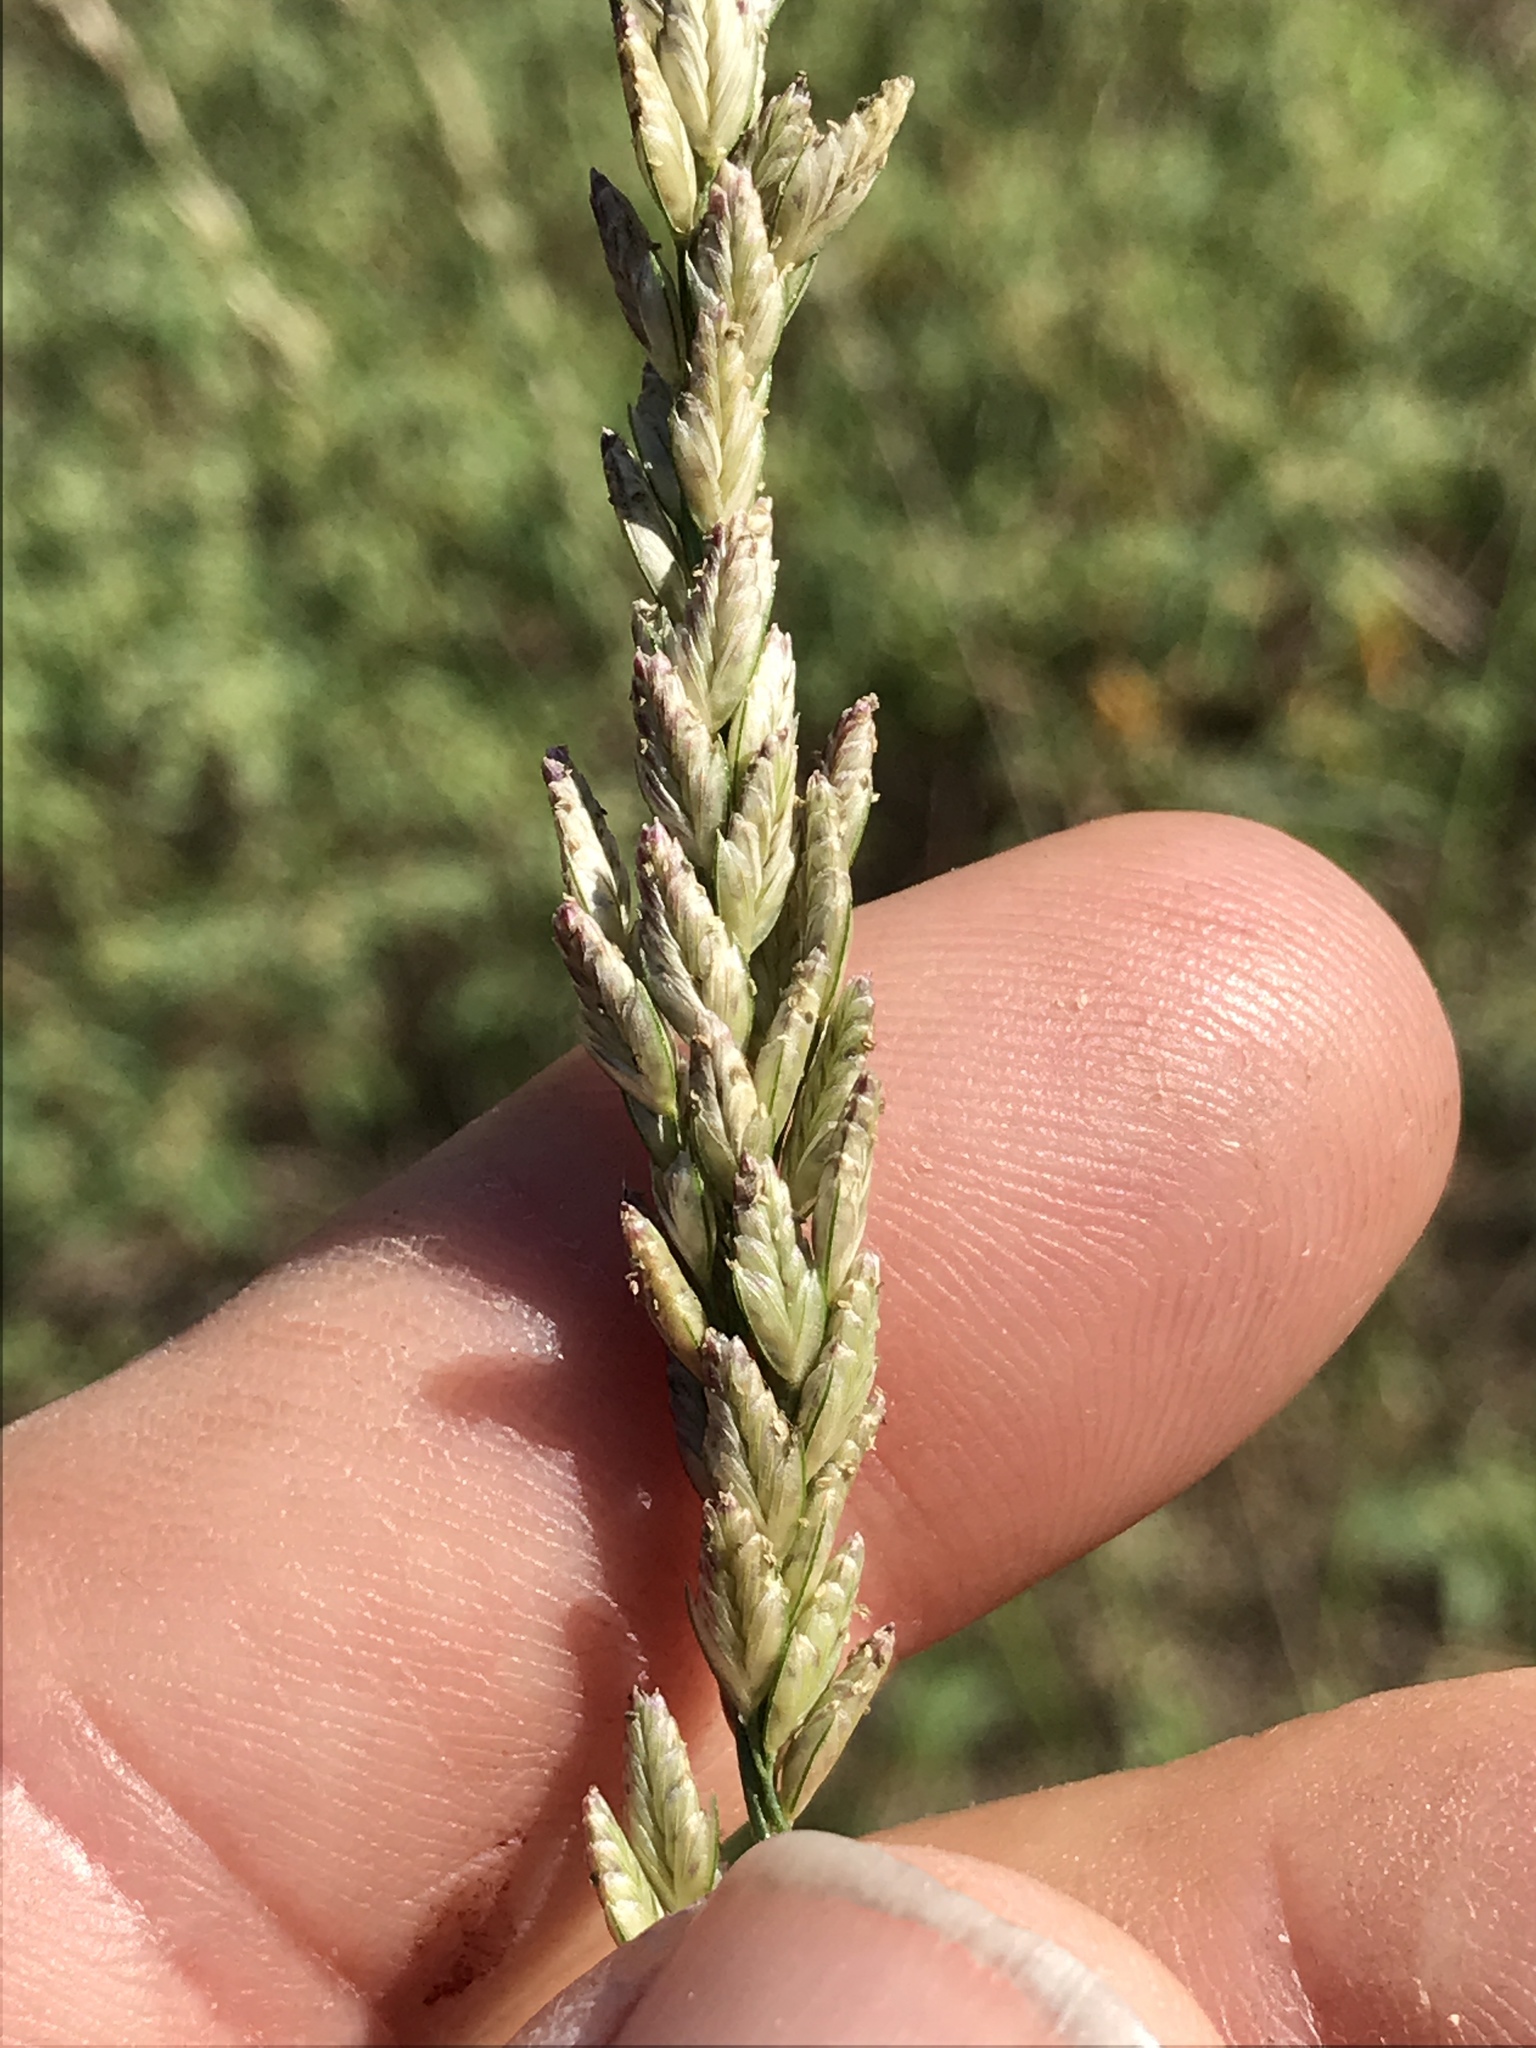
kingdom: Plantae
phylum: Tracheophyta
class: Liliopsida
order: Poales
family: Poaceae
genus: Tridens
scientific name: Tridens albescens
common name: White tridens
